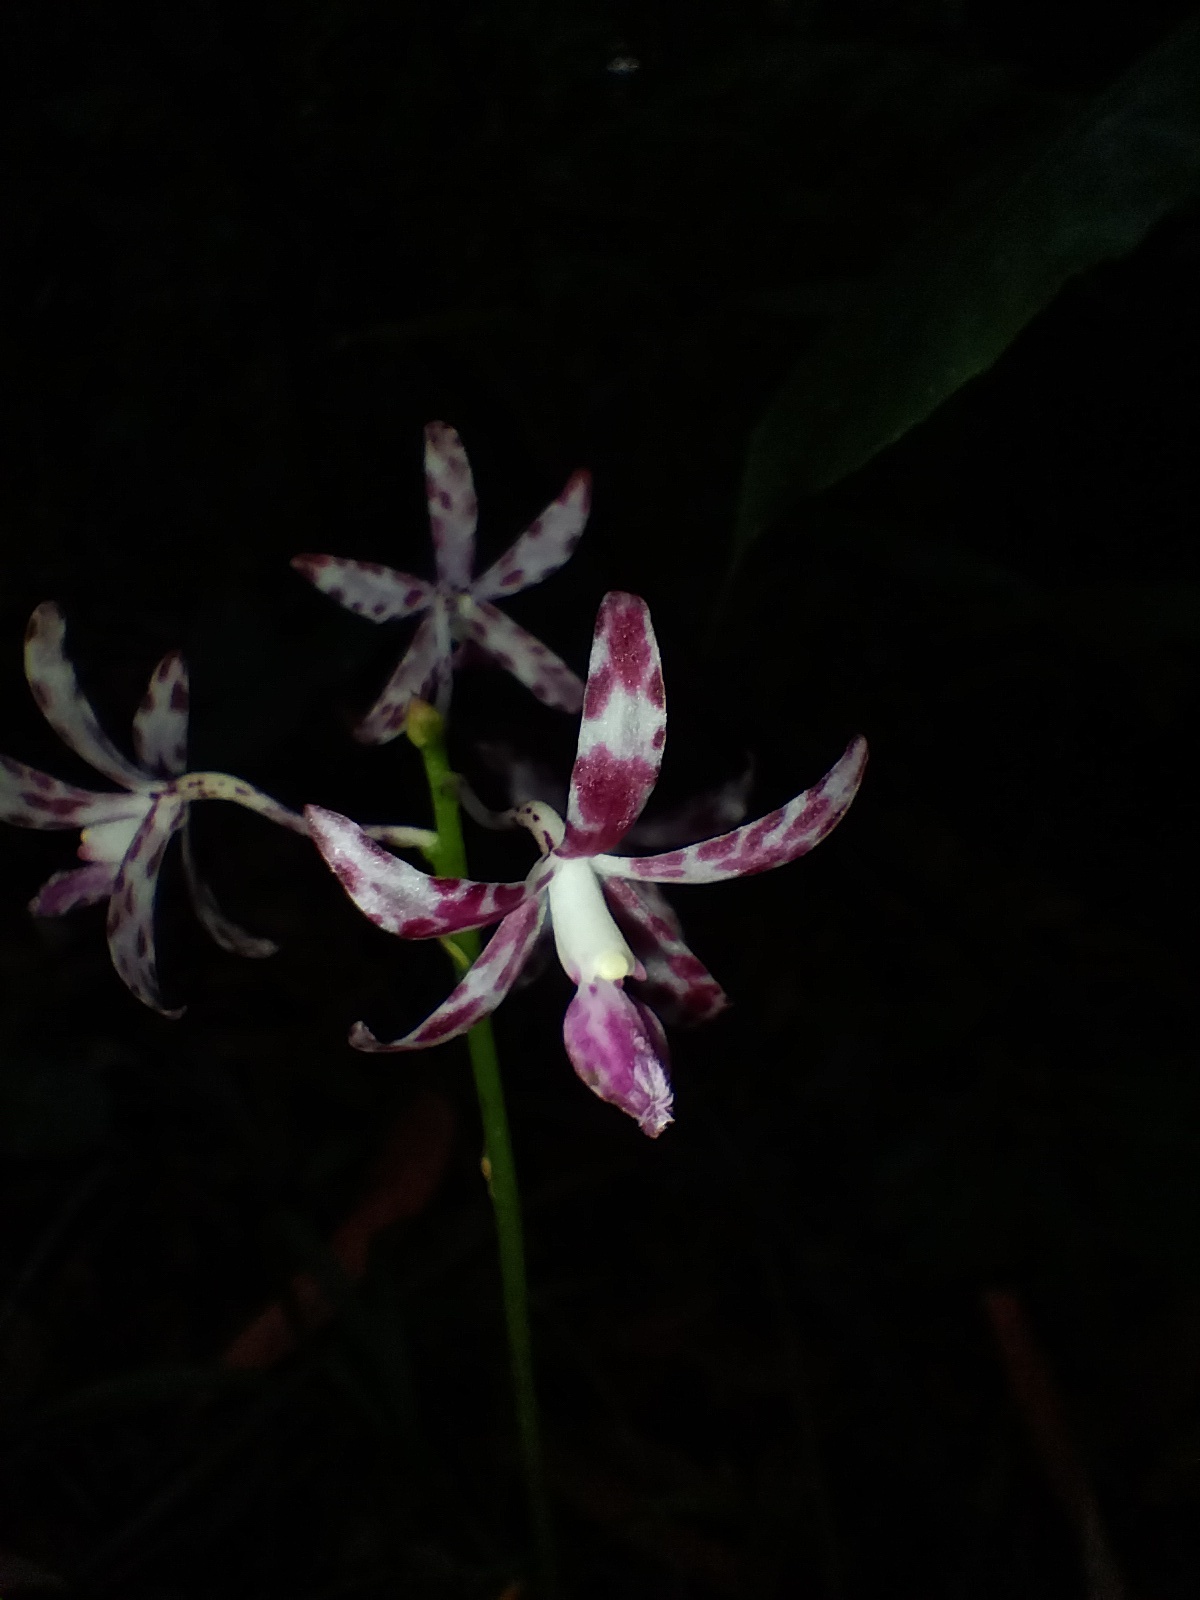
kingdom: Plantae
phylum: Tracheophyta
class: Liliopsida
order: Asparagales
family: Orchidaceae
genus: Dipodium
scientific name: Dipodium variegatum
